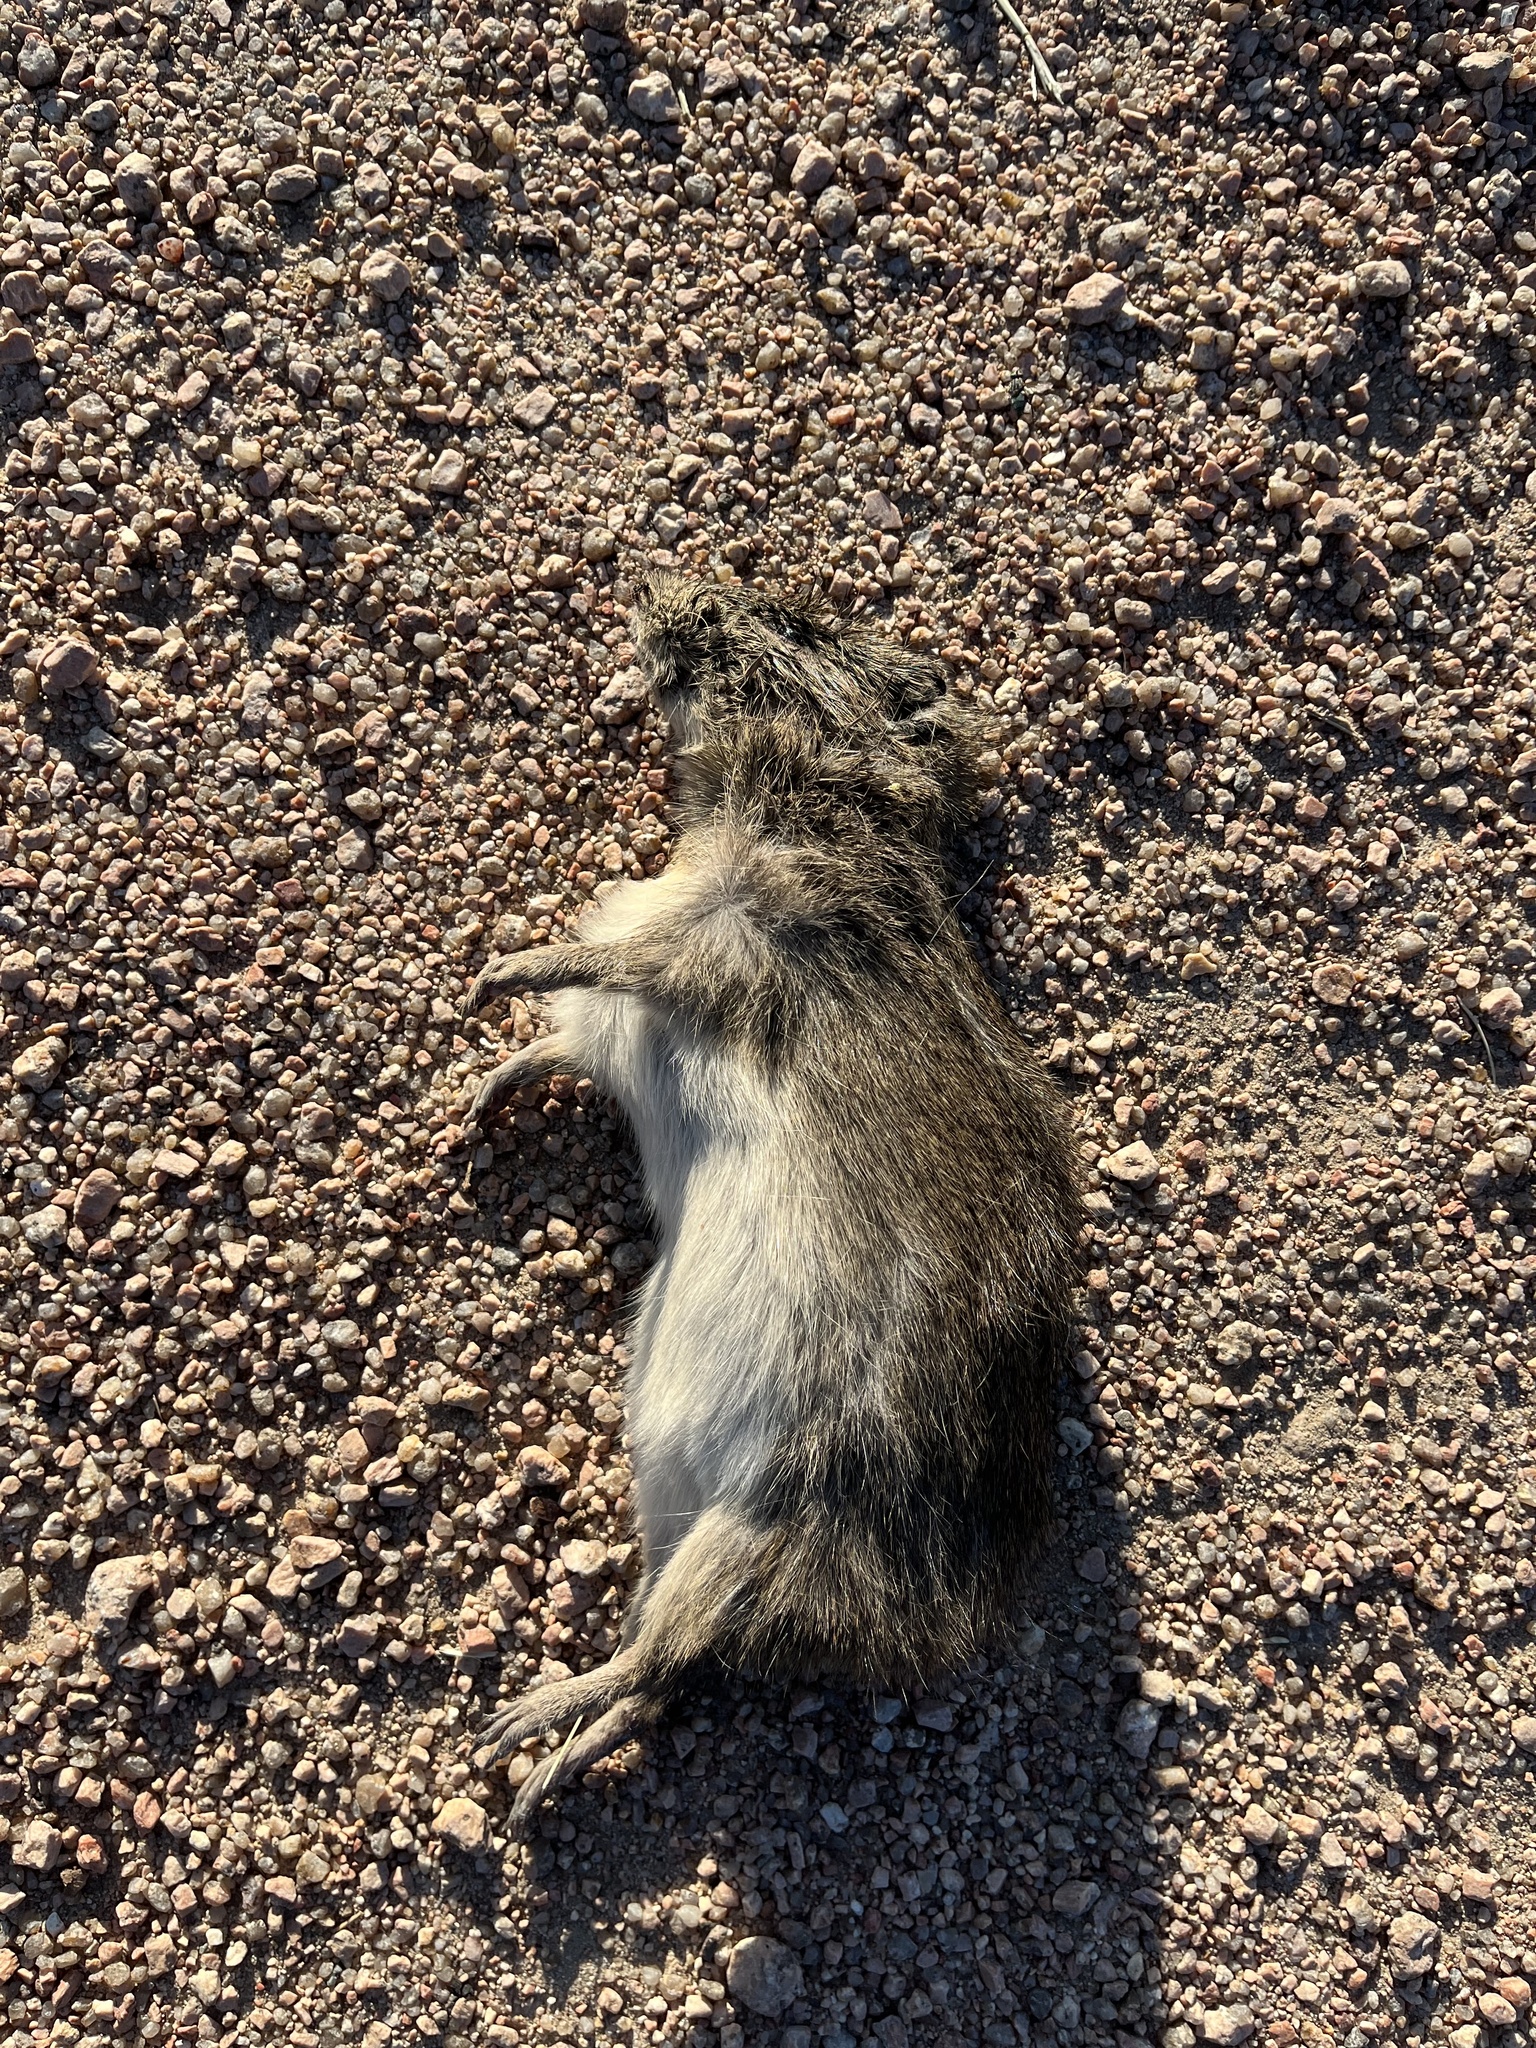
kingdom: Animalia
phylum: Chordata
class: Mammalia
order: Rodentia
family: Caviidae
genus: Cavia
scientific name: Cavia aperea
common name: Brazilian guinea pig
